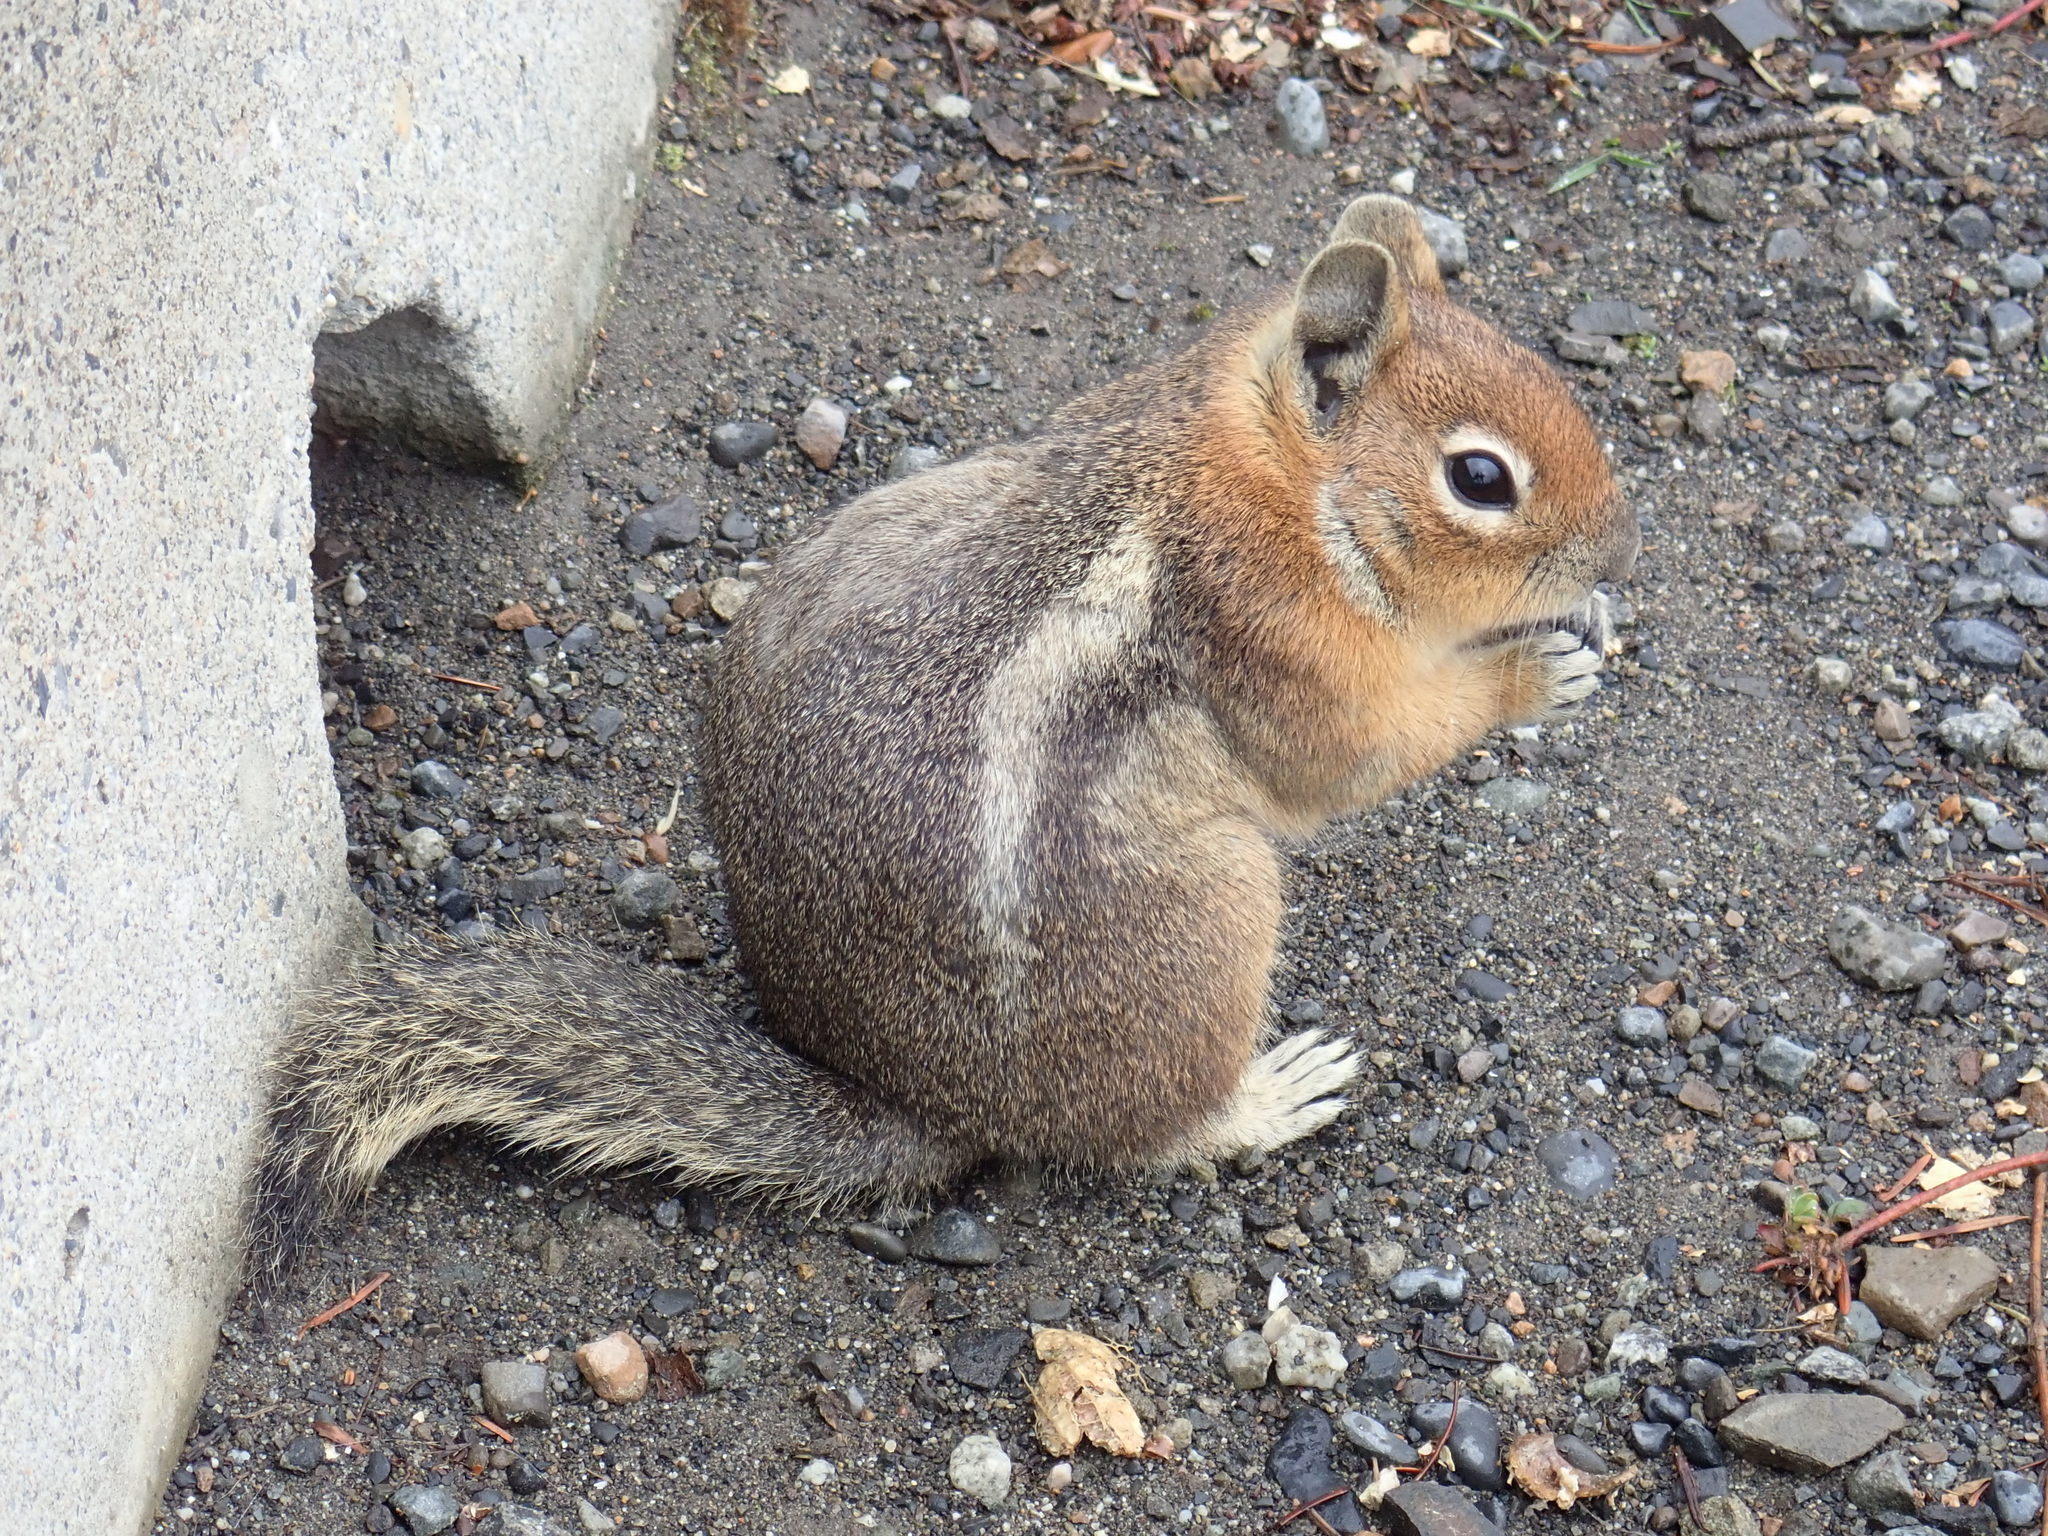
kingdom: Animalia
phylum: Chordata
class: Mammalia
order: Rodentia
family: Sciuridae
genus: Callospermophilus
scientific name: Callospermophilus saturatus
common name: Cascade golden-mantled ground squirrel
